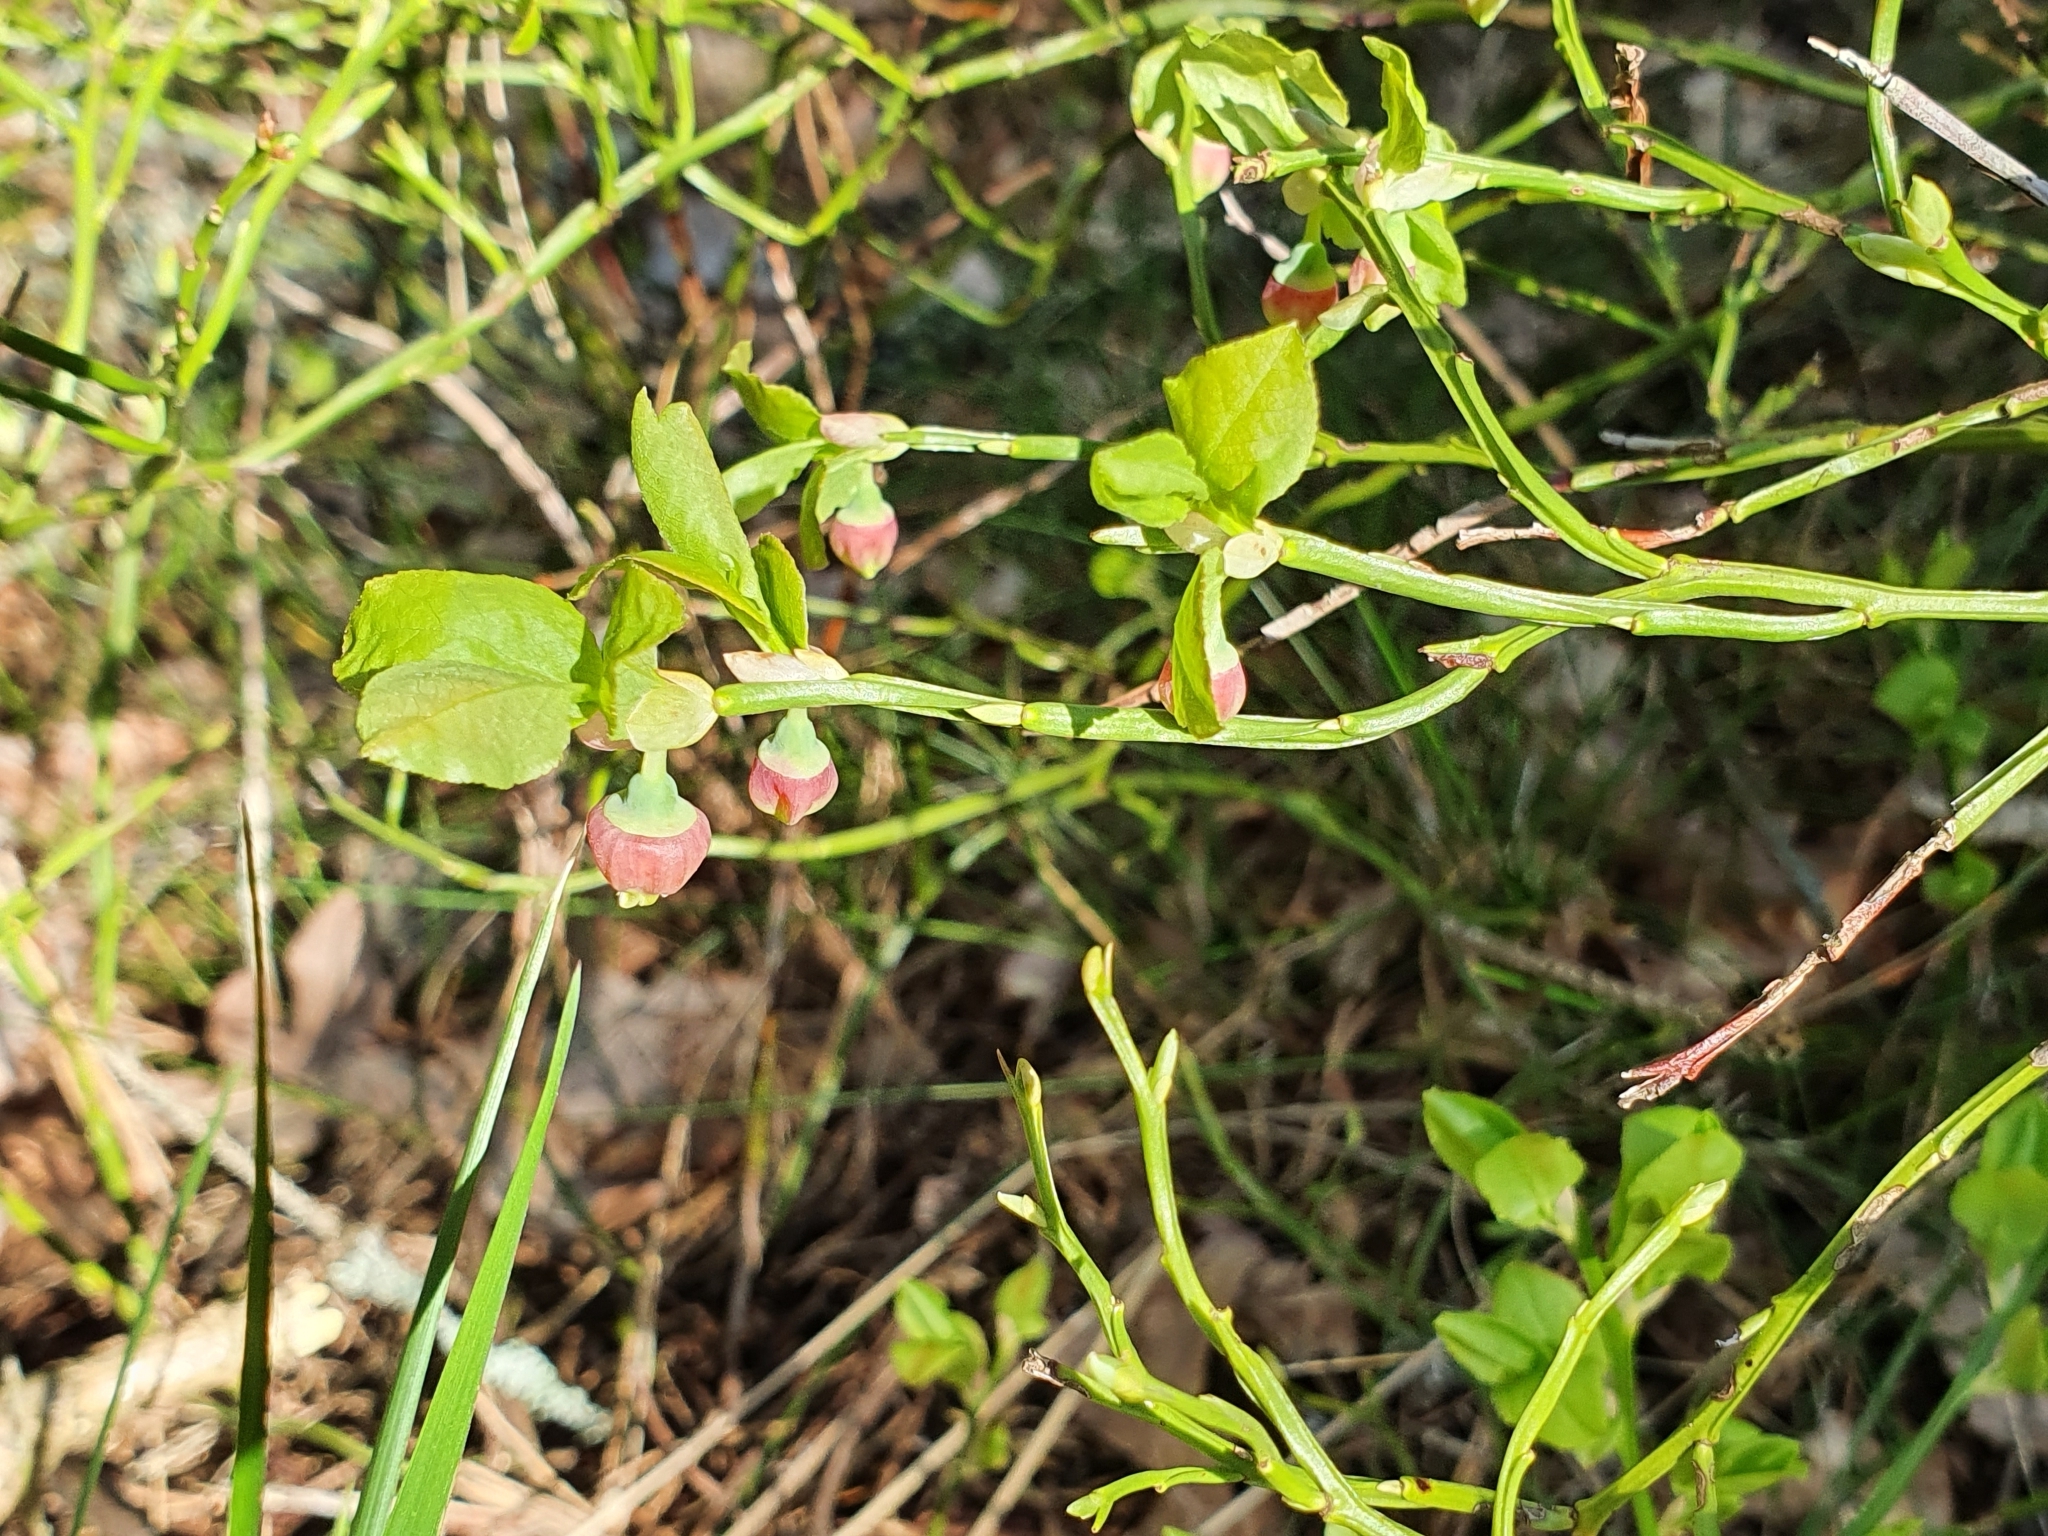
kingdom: Plantae
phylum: Tracheophyta
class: Magnoliopsida
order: Ericales
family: Ericaceae
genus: Vaccinium
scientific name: Vaccinium myrtillus
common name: Bilberry
